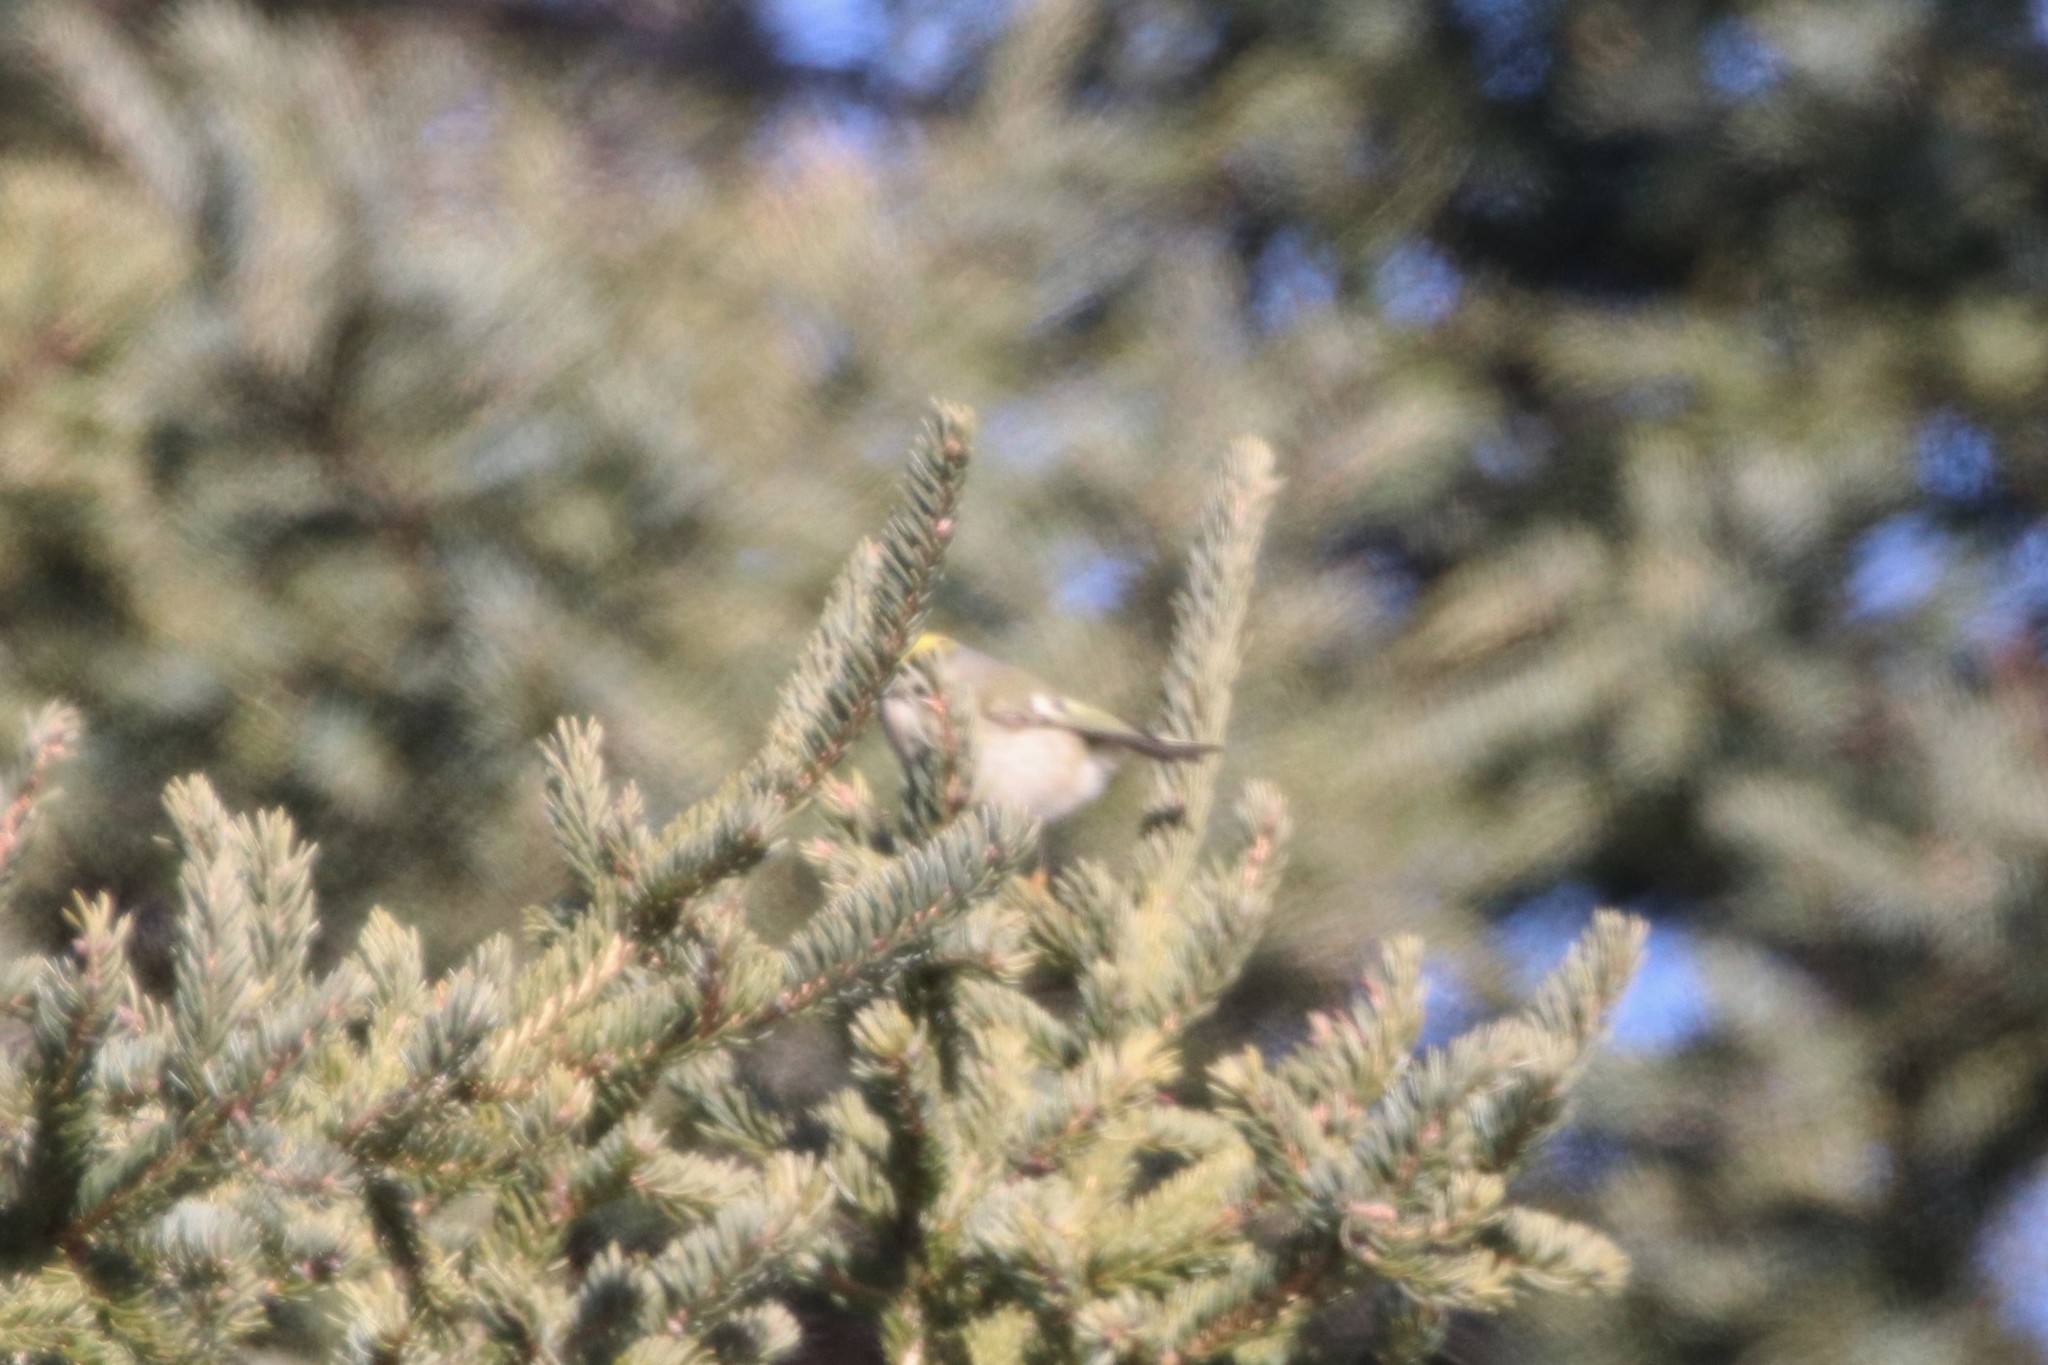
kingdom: Animalia
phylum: Chordata
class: Aves
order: Passeriformes
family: Regulidae
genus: Regulus
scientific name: Regulus satrapa
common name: Golden-crowned kinglet
